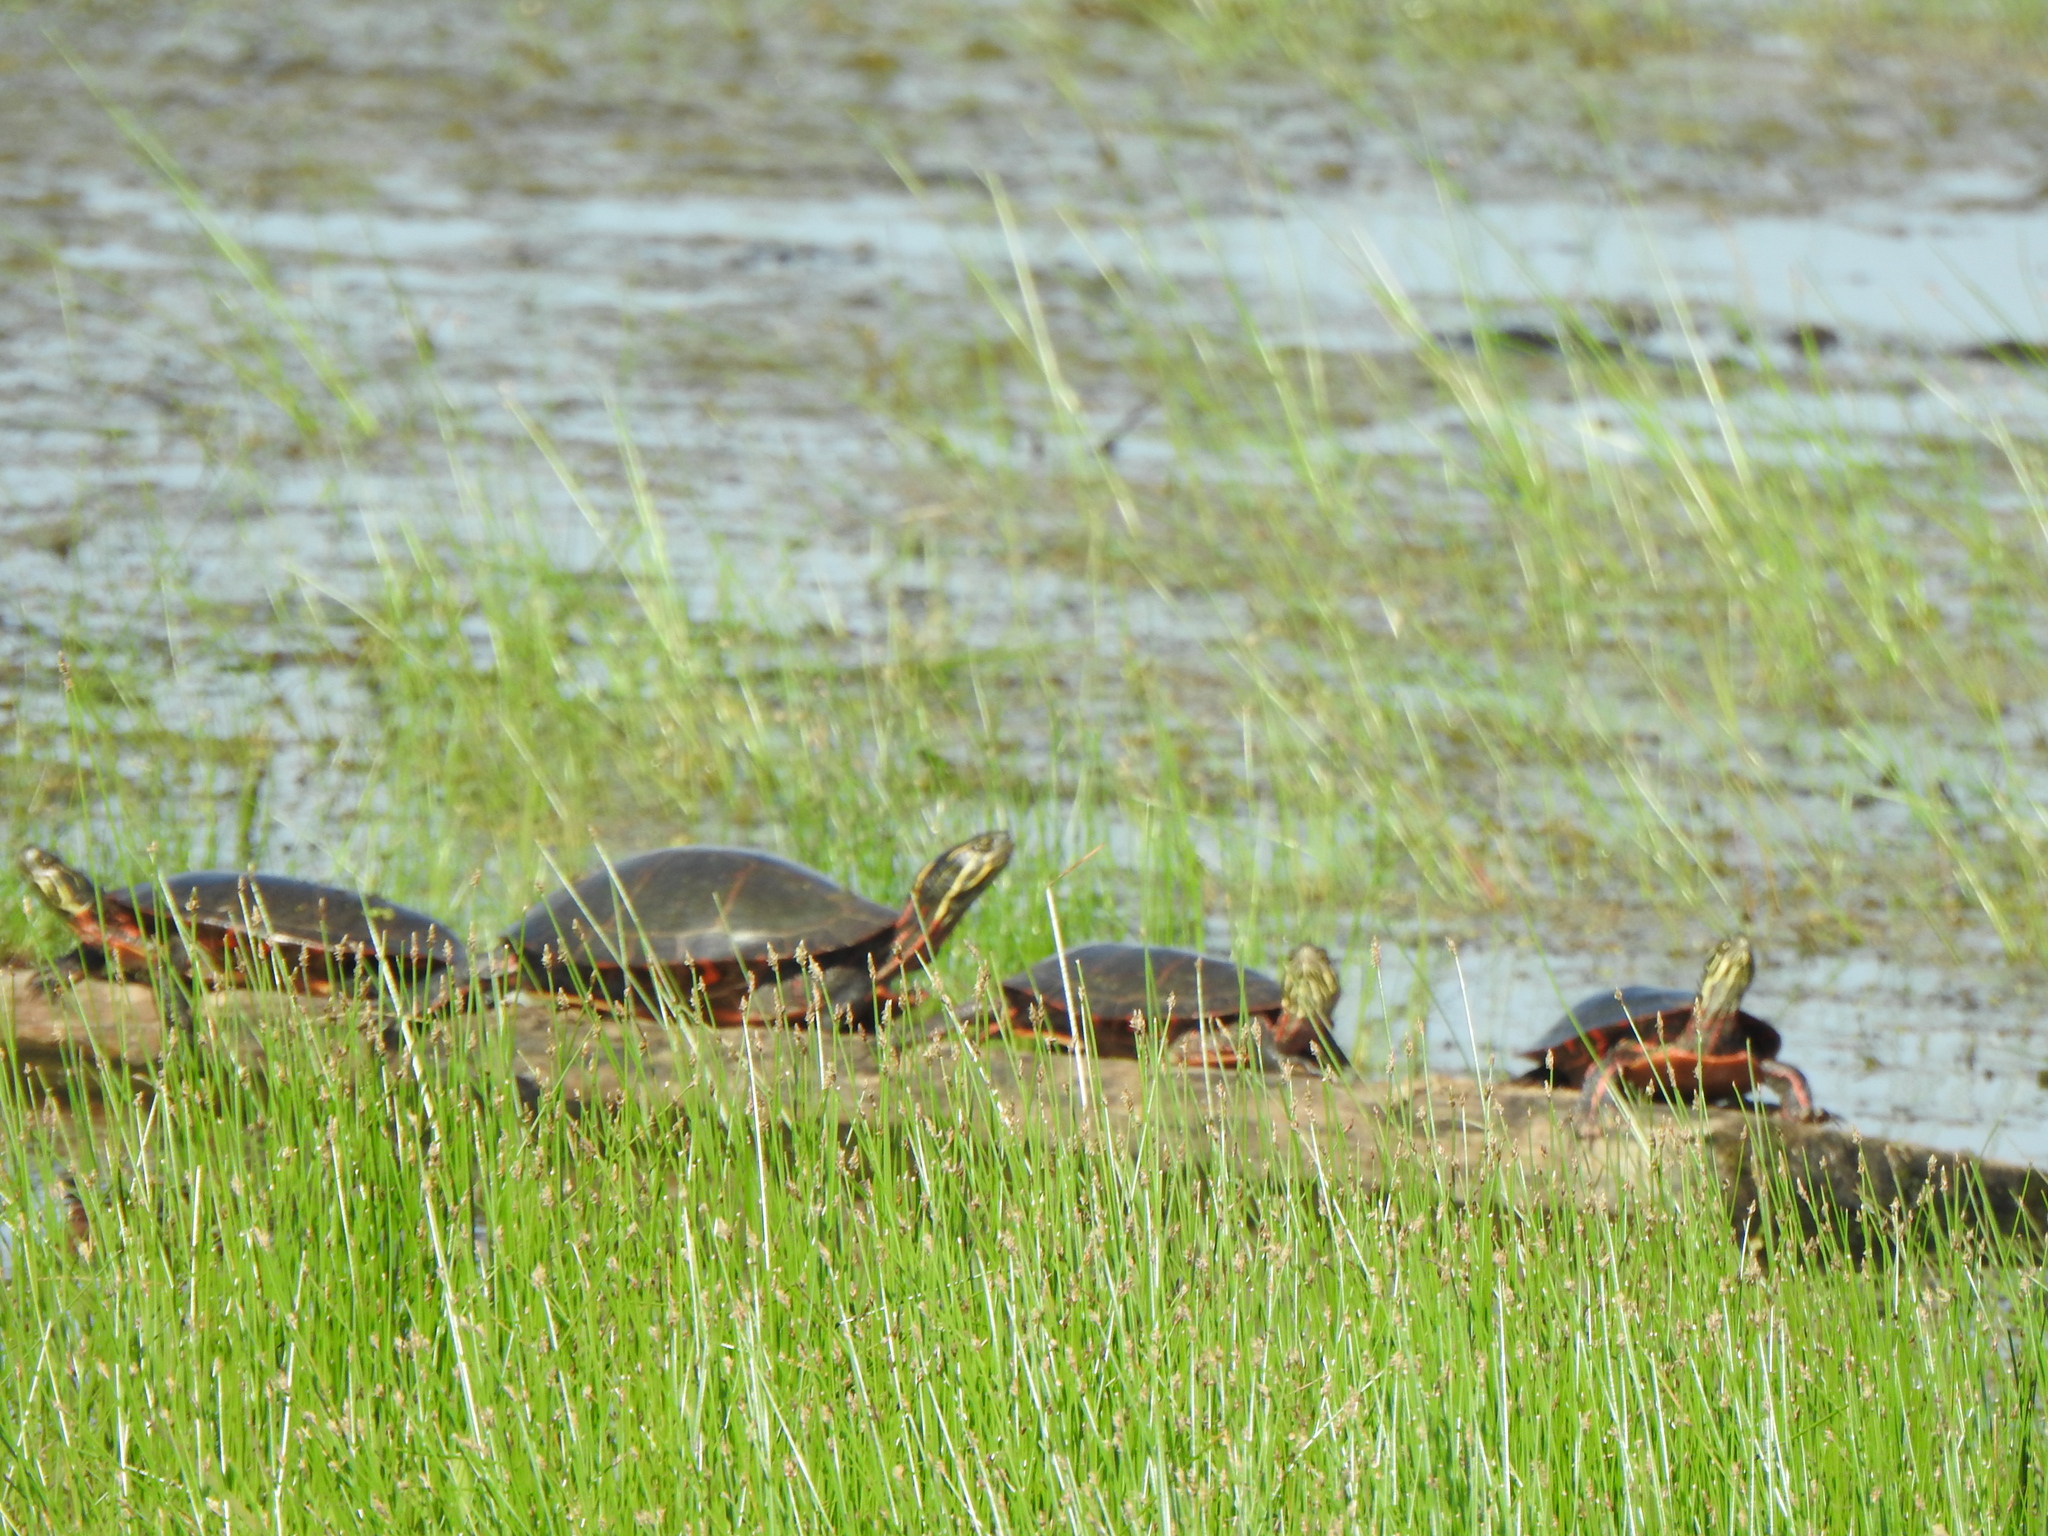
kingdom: Animalia
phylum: Chordata
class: Testudines
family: Emydidae
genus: Chrysemys
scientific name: Chrysemys picta
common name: Painted turtle
